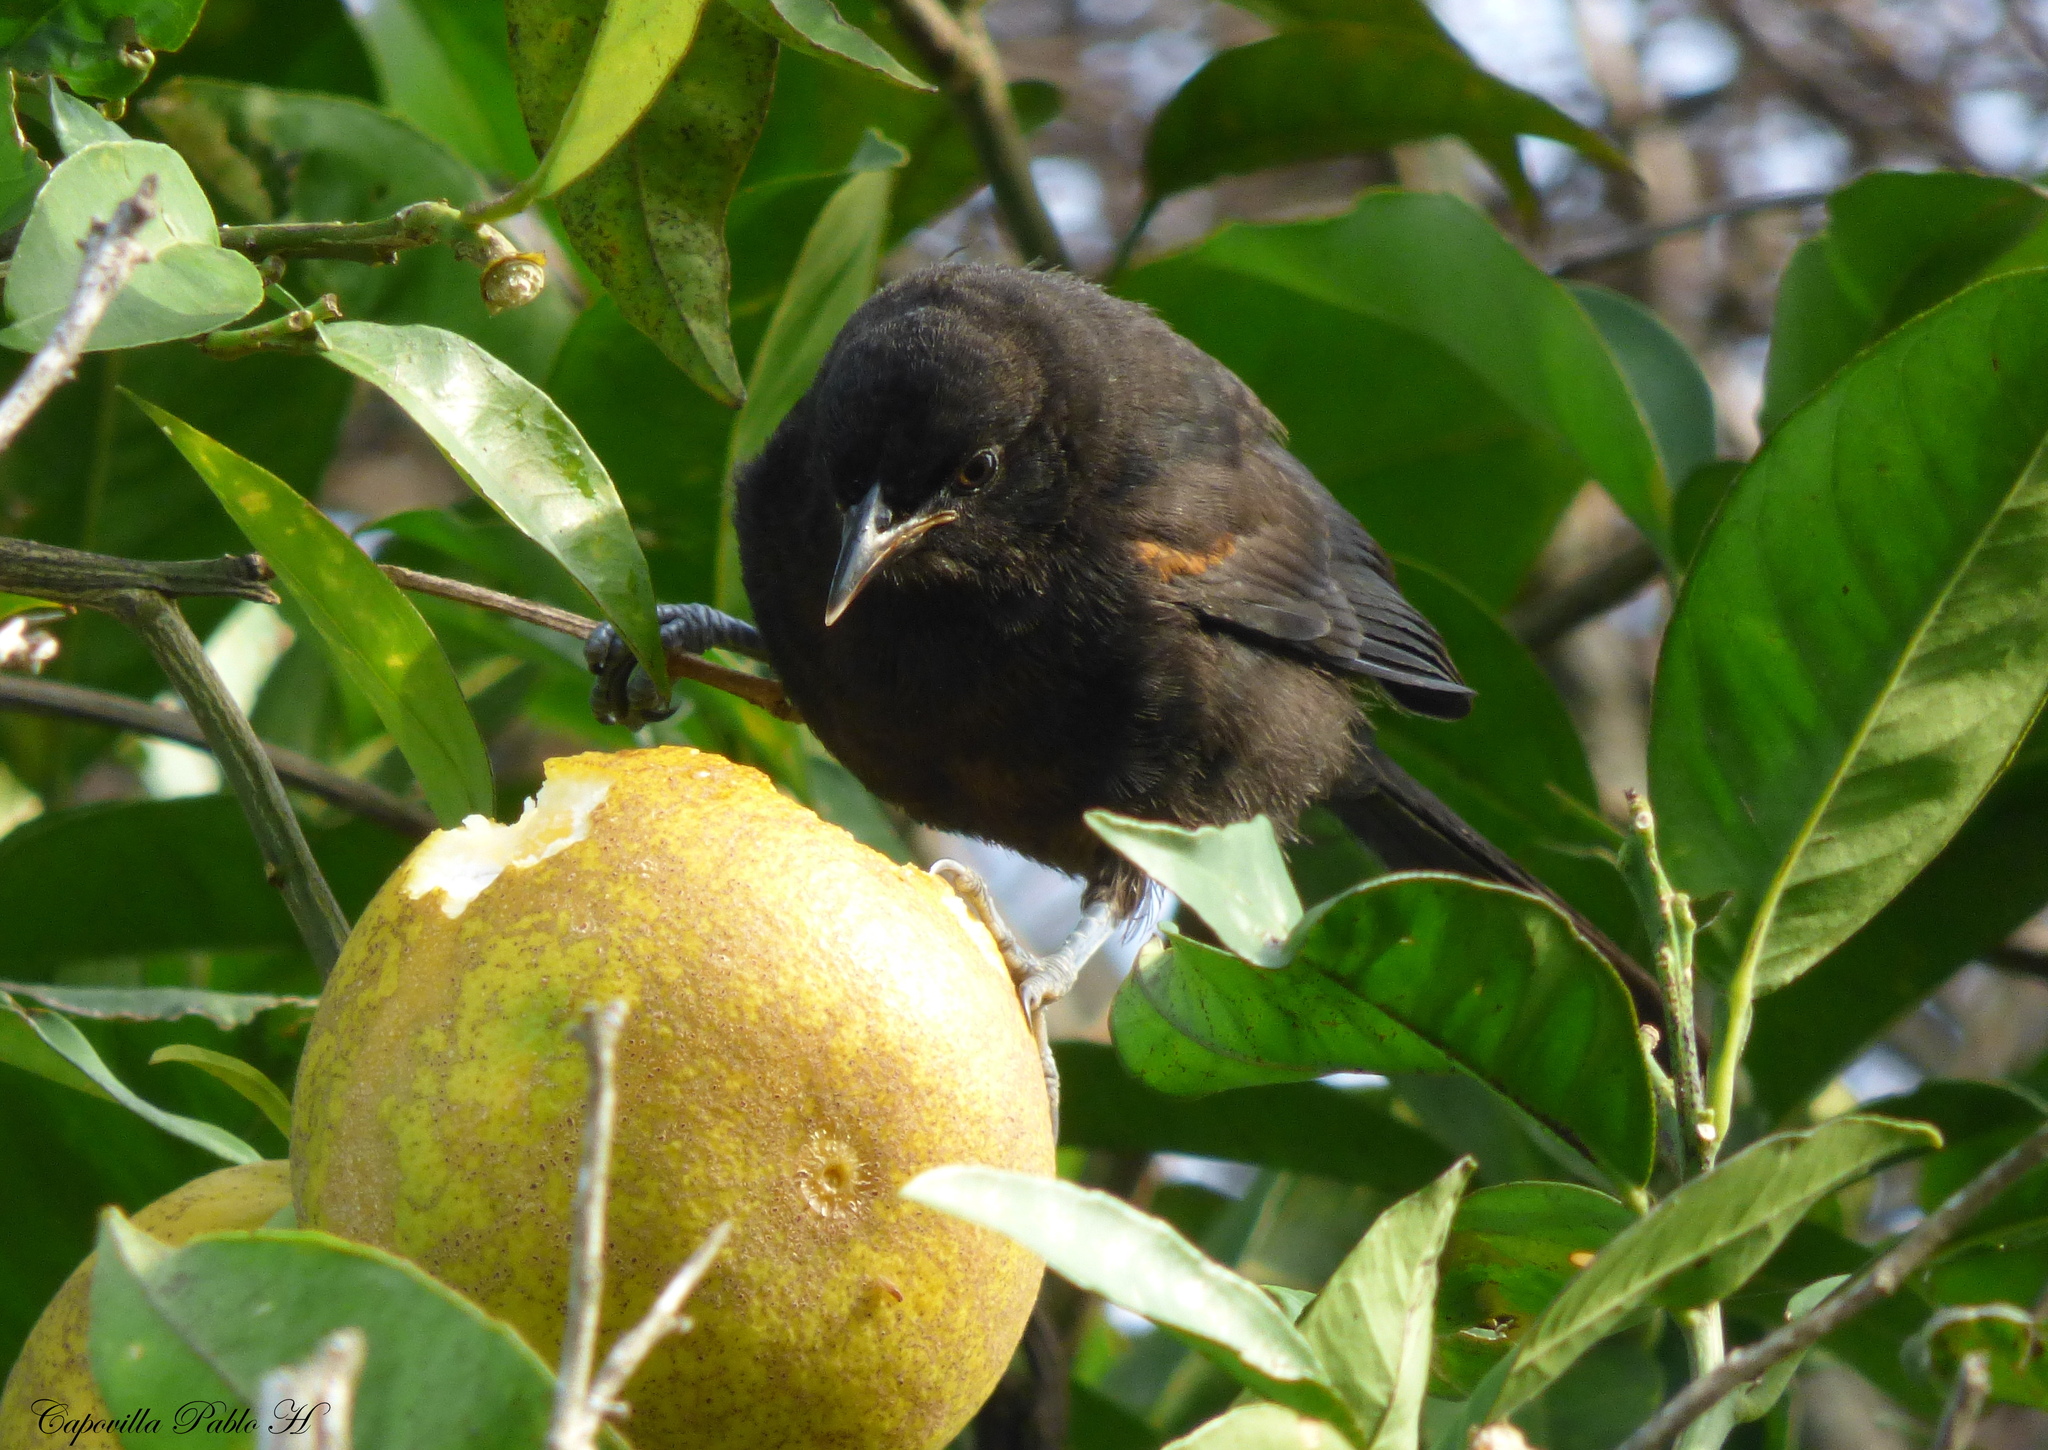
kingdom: Animalia
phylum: Chordata
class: Aves
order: Passeriformes
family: Icteridae
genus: Icterus
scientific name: Icterus cayanensis
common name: Epaulet oriole
